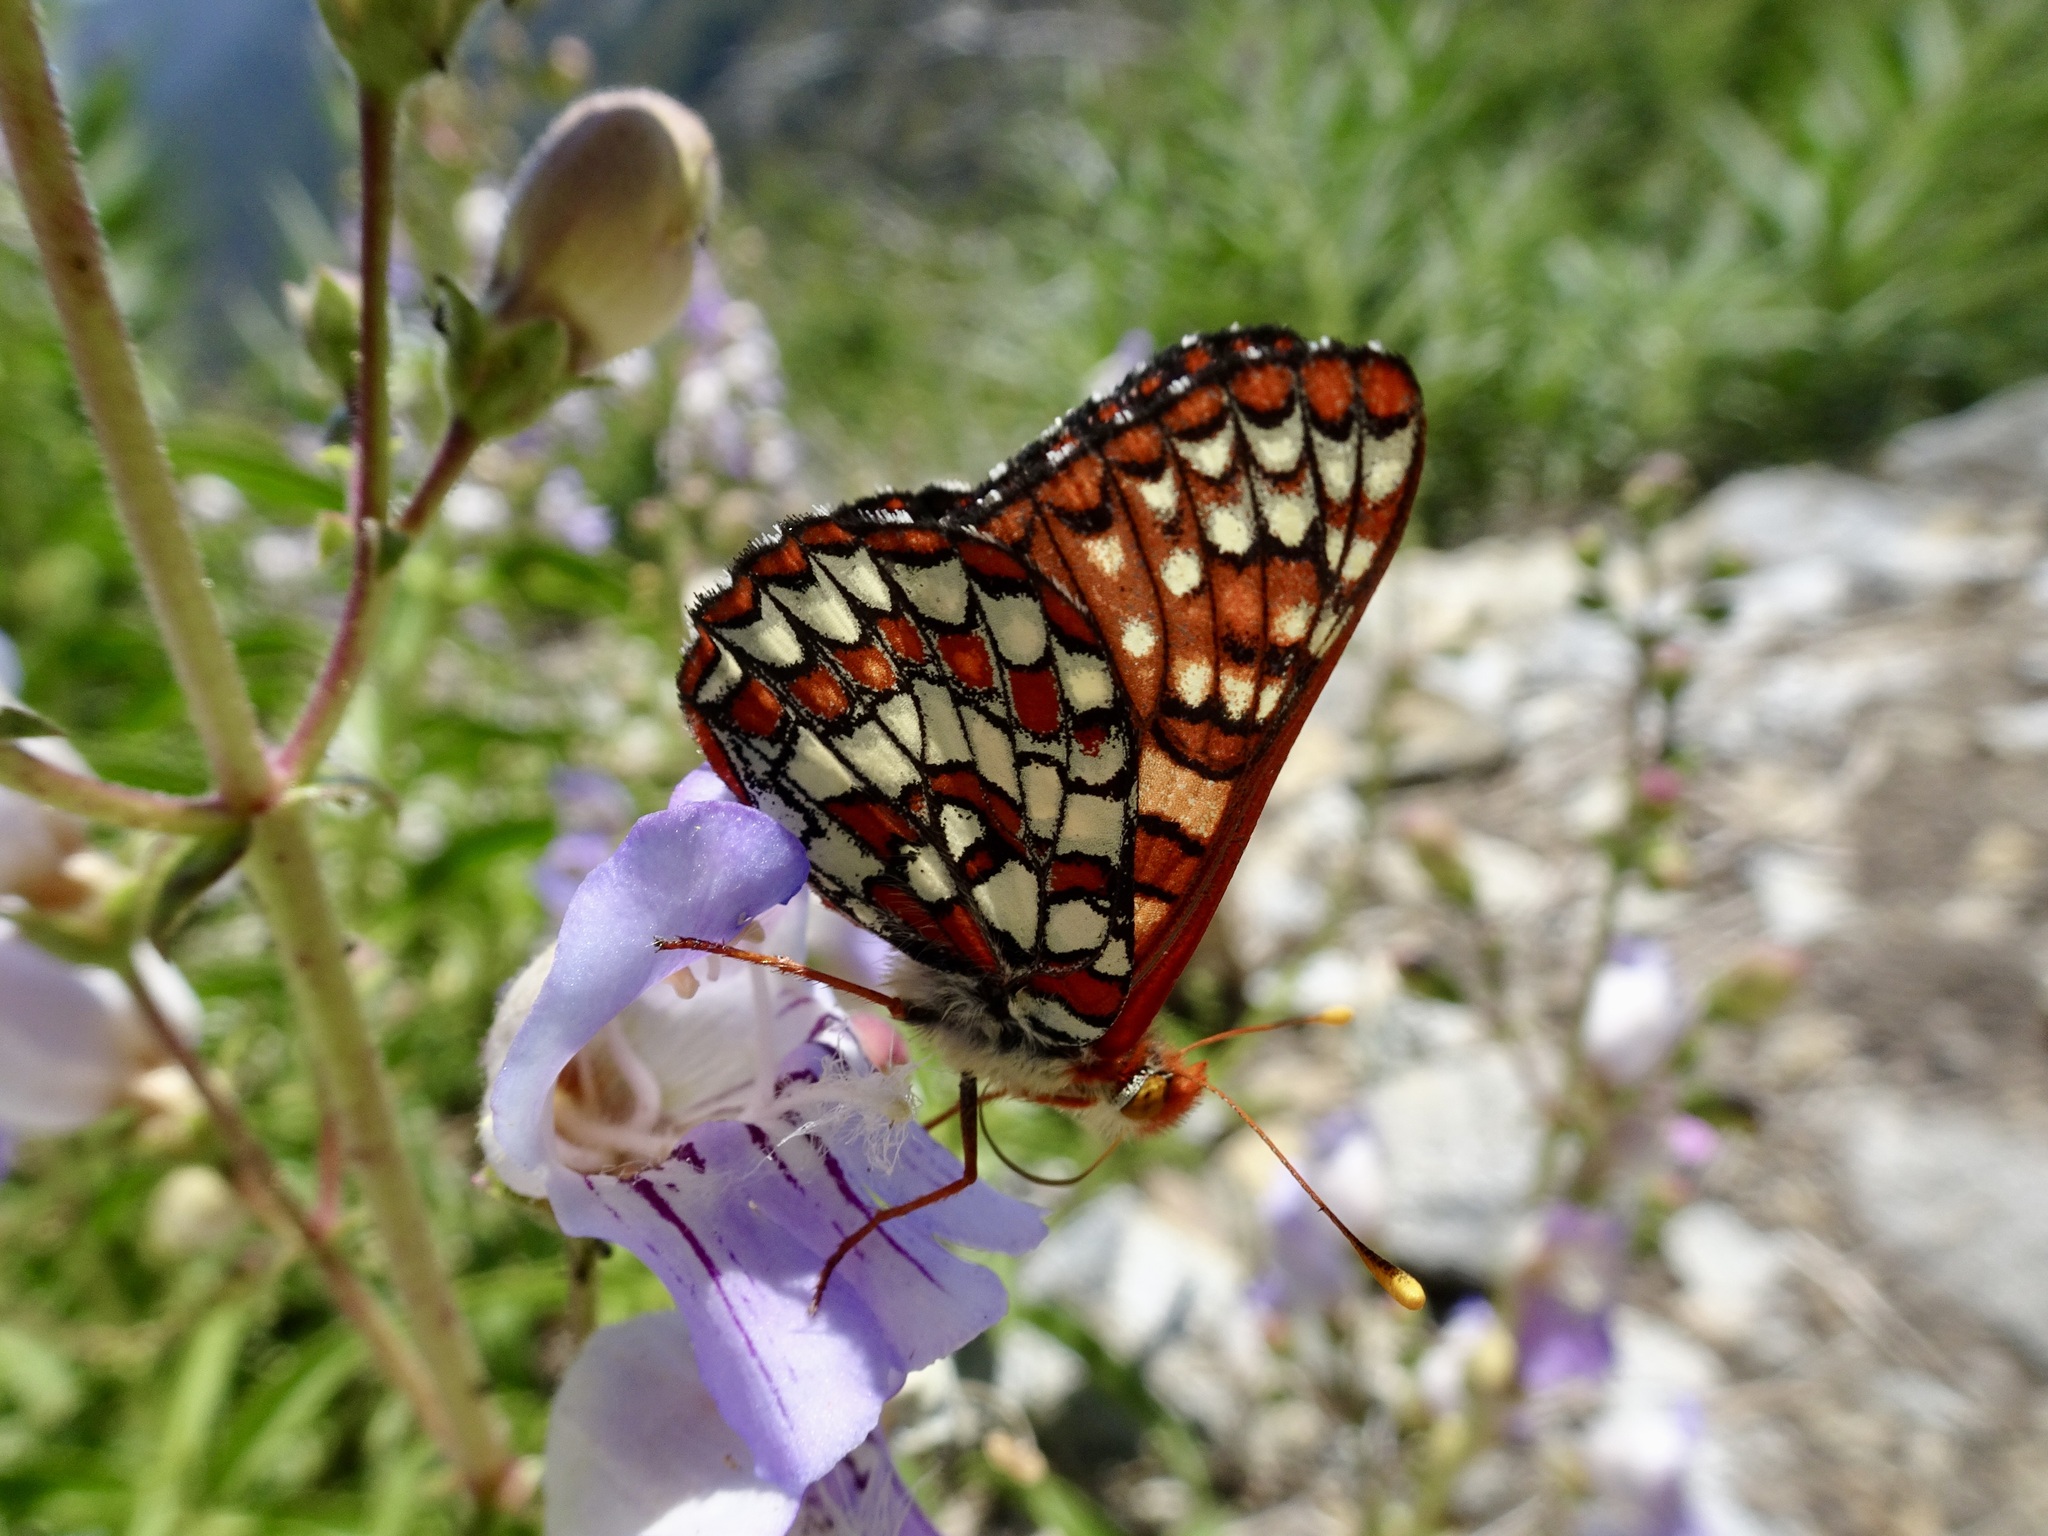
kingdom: Animalia
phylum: Arthropoda
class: Insecta
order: Lepidoptera
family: Nymphalidae
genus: Occidryas
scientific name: Occidryas chalcedona
